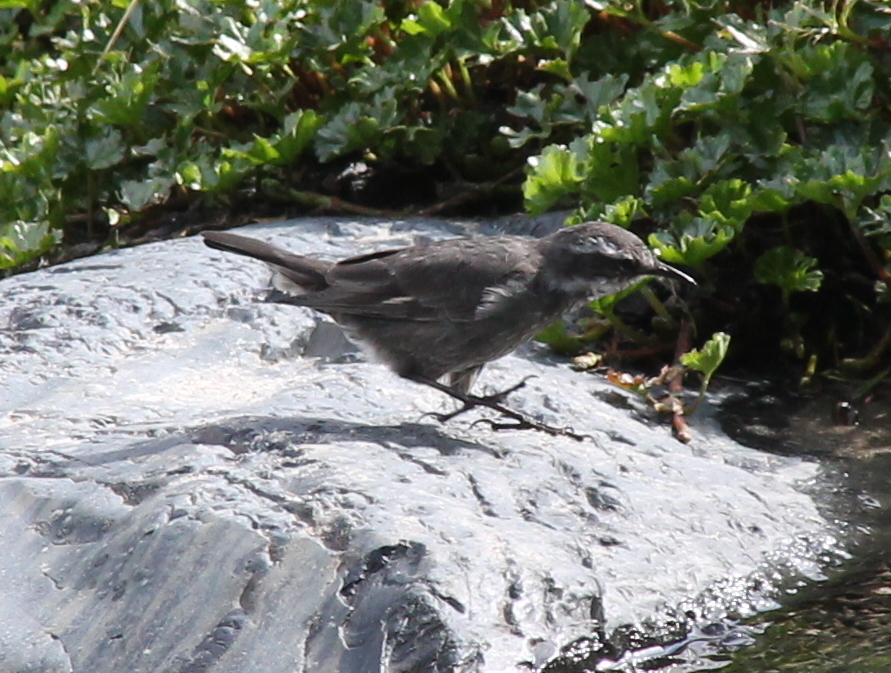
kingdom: Animalia
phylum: Chordata
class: Aves
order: Passeriformes
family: Furnariidae
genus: Cinclodes
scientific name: Cinclodes oustaleti
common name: Grey-flanked cinclodes
